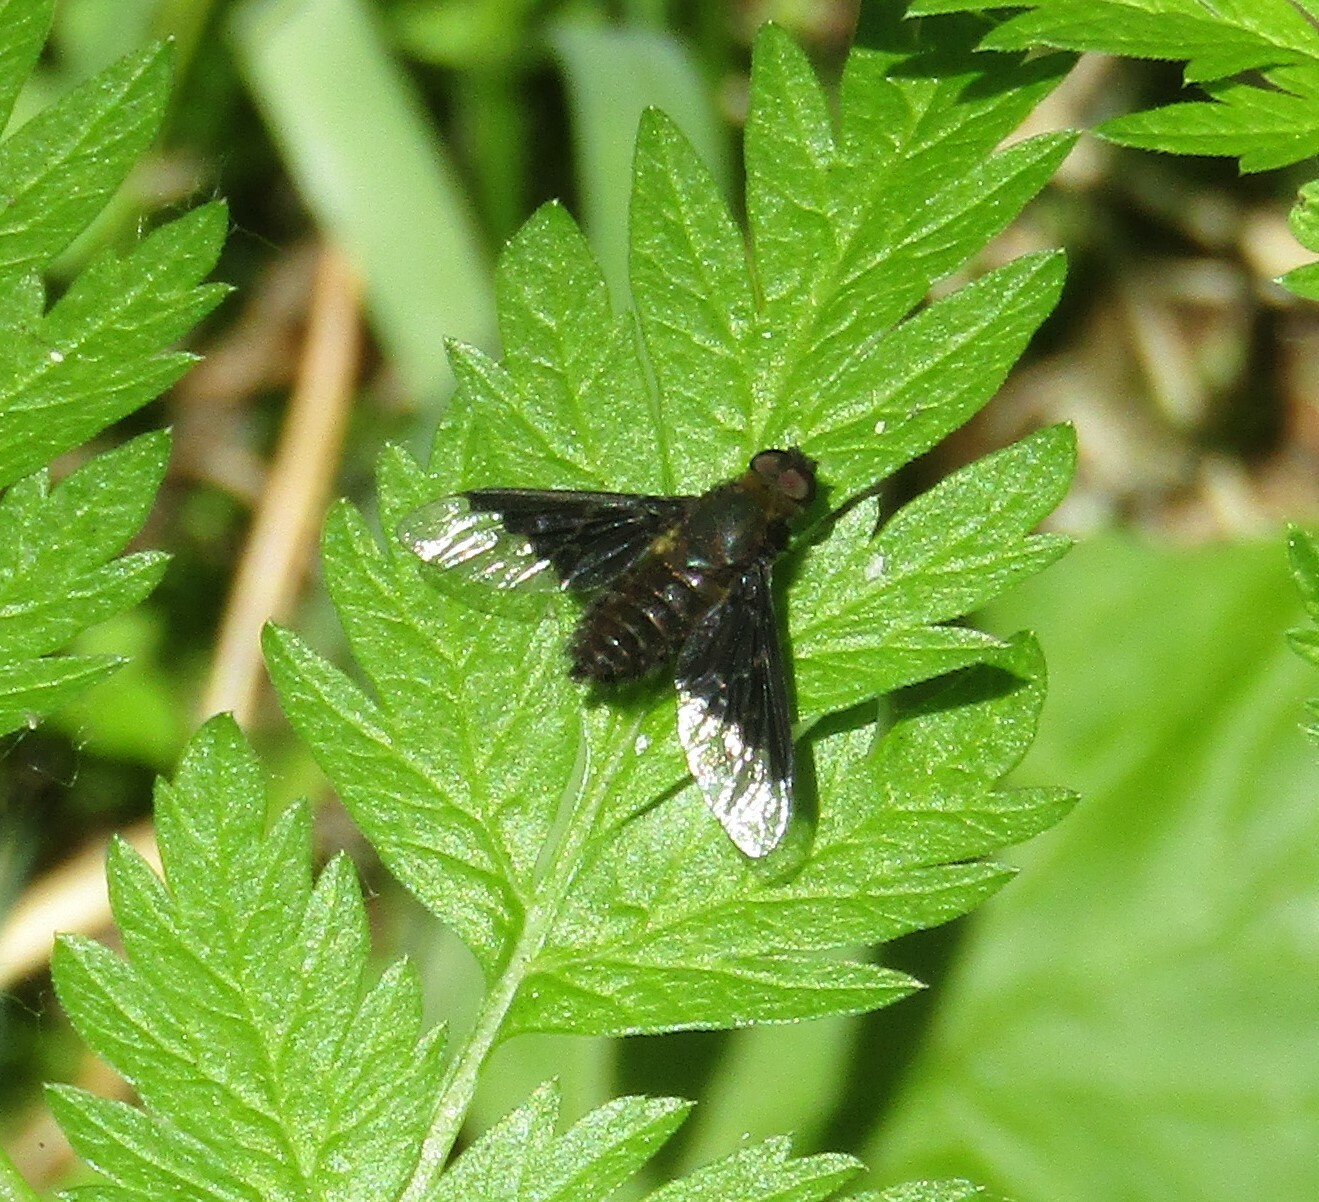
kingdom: Animalia
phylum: Arthropoda
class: Insecta
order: Diptera
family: Bombyliidae
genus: Hemipenthes
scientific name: Hemipenthes morio
